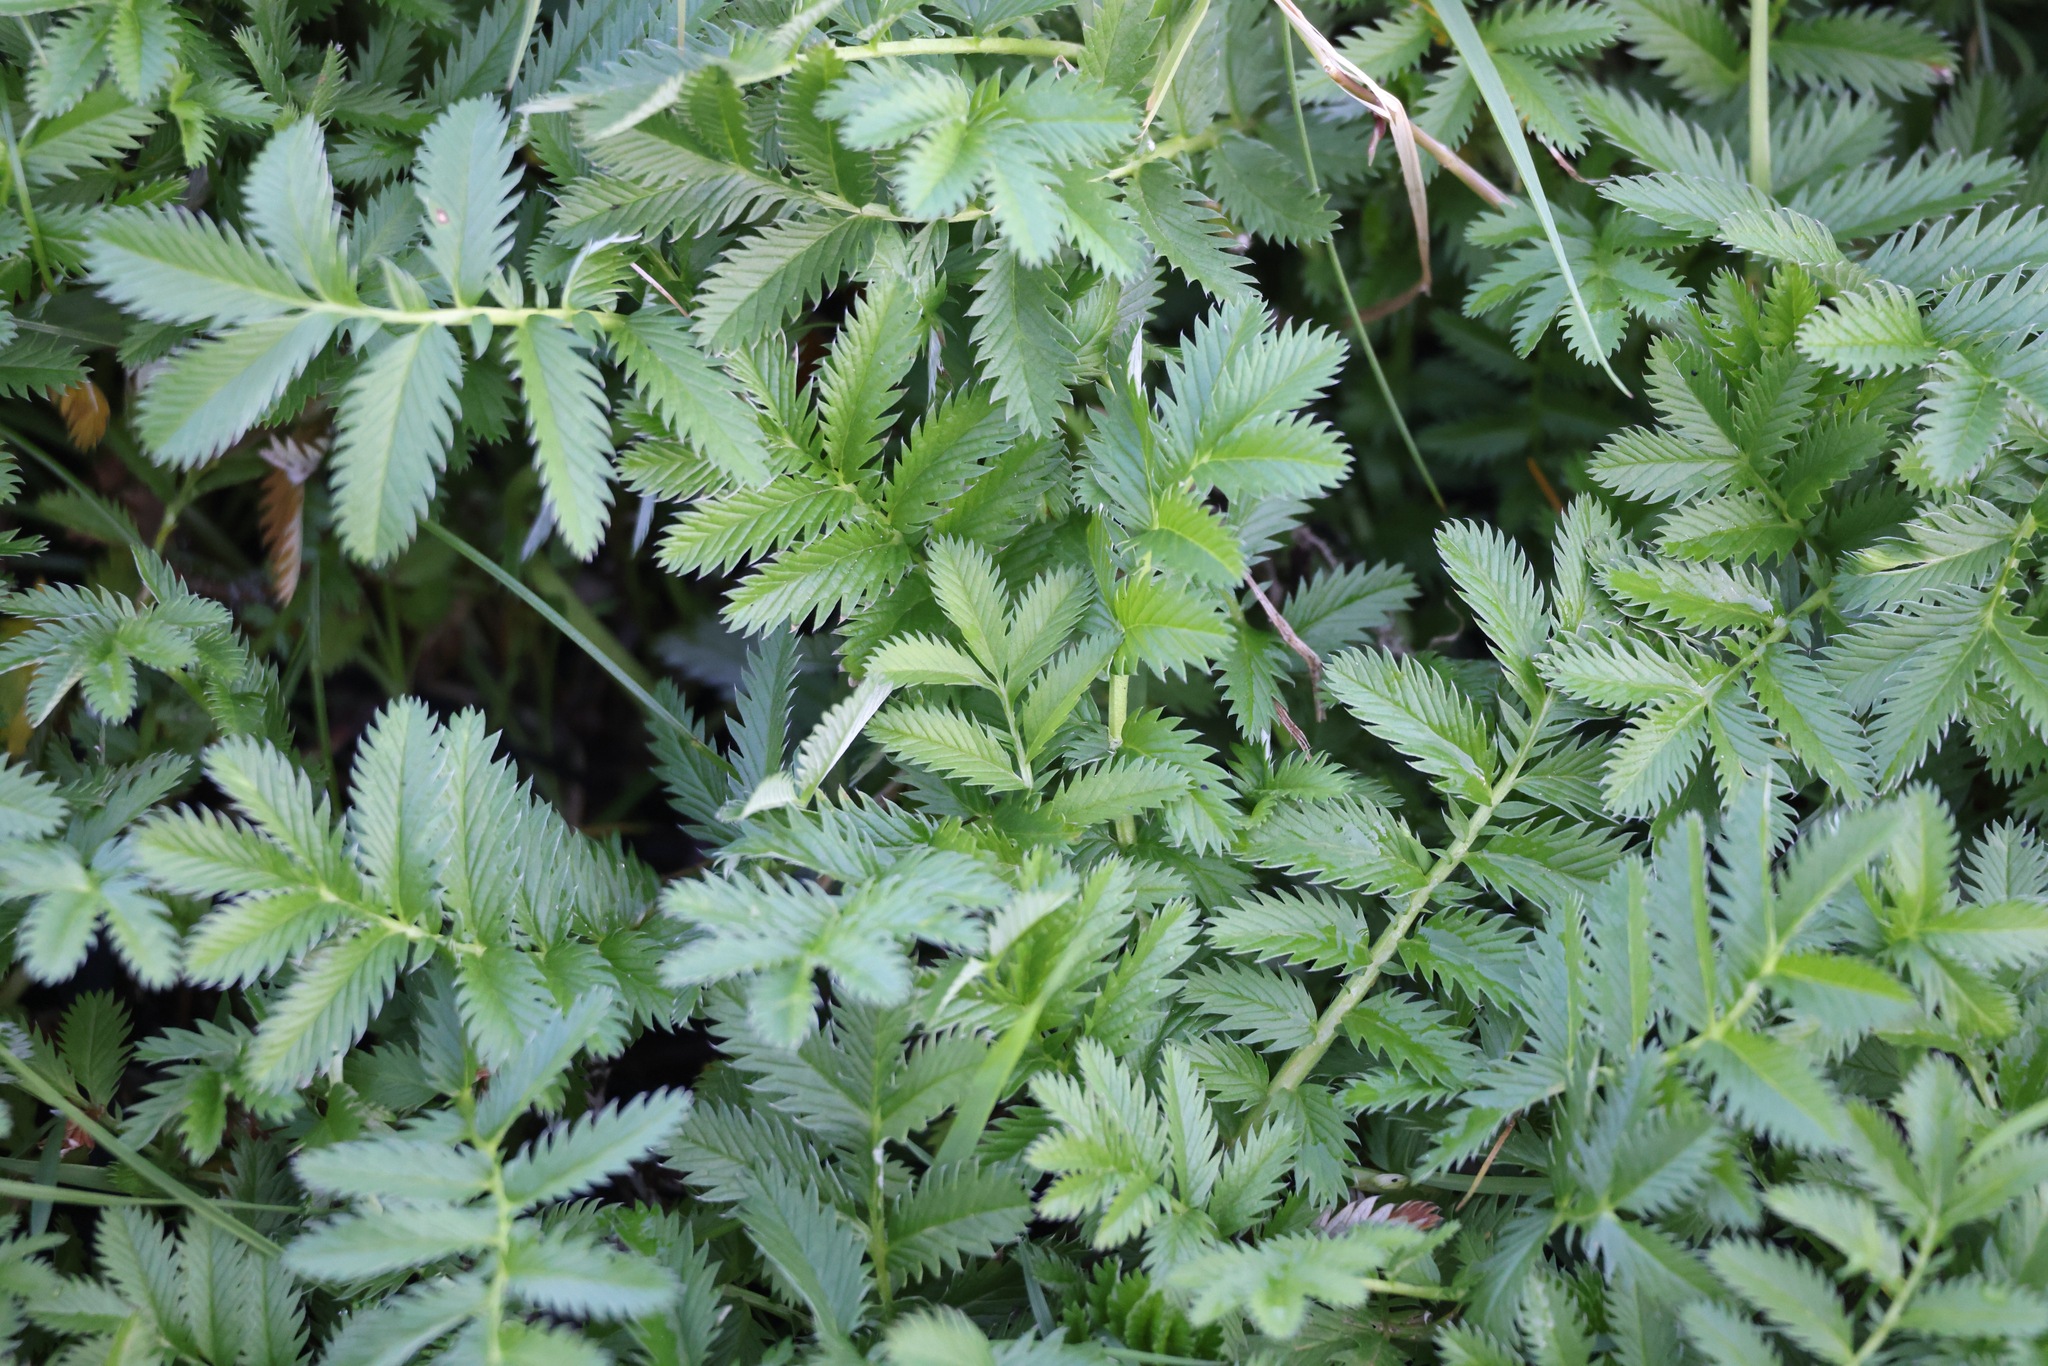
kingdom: Plantae
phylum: Tracheophyta
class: Magnoliopsida
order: Rosales
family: Rosaceae
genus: Argentina
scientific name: Argentina anserina
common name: Common silverweed
